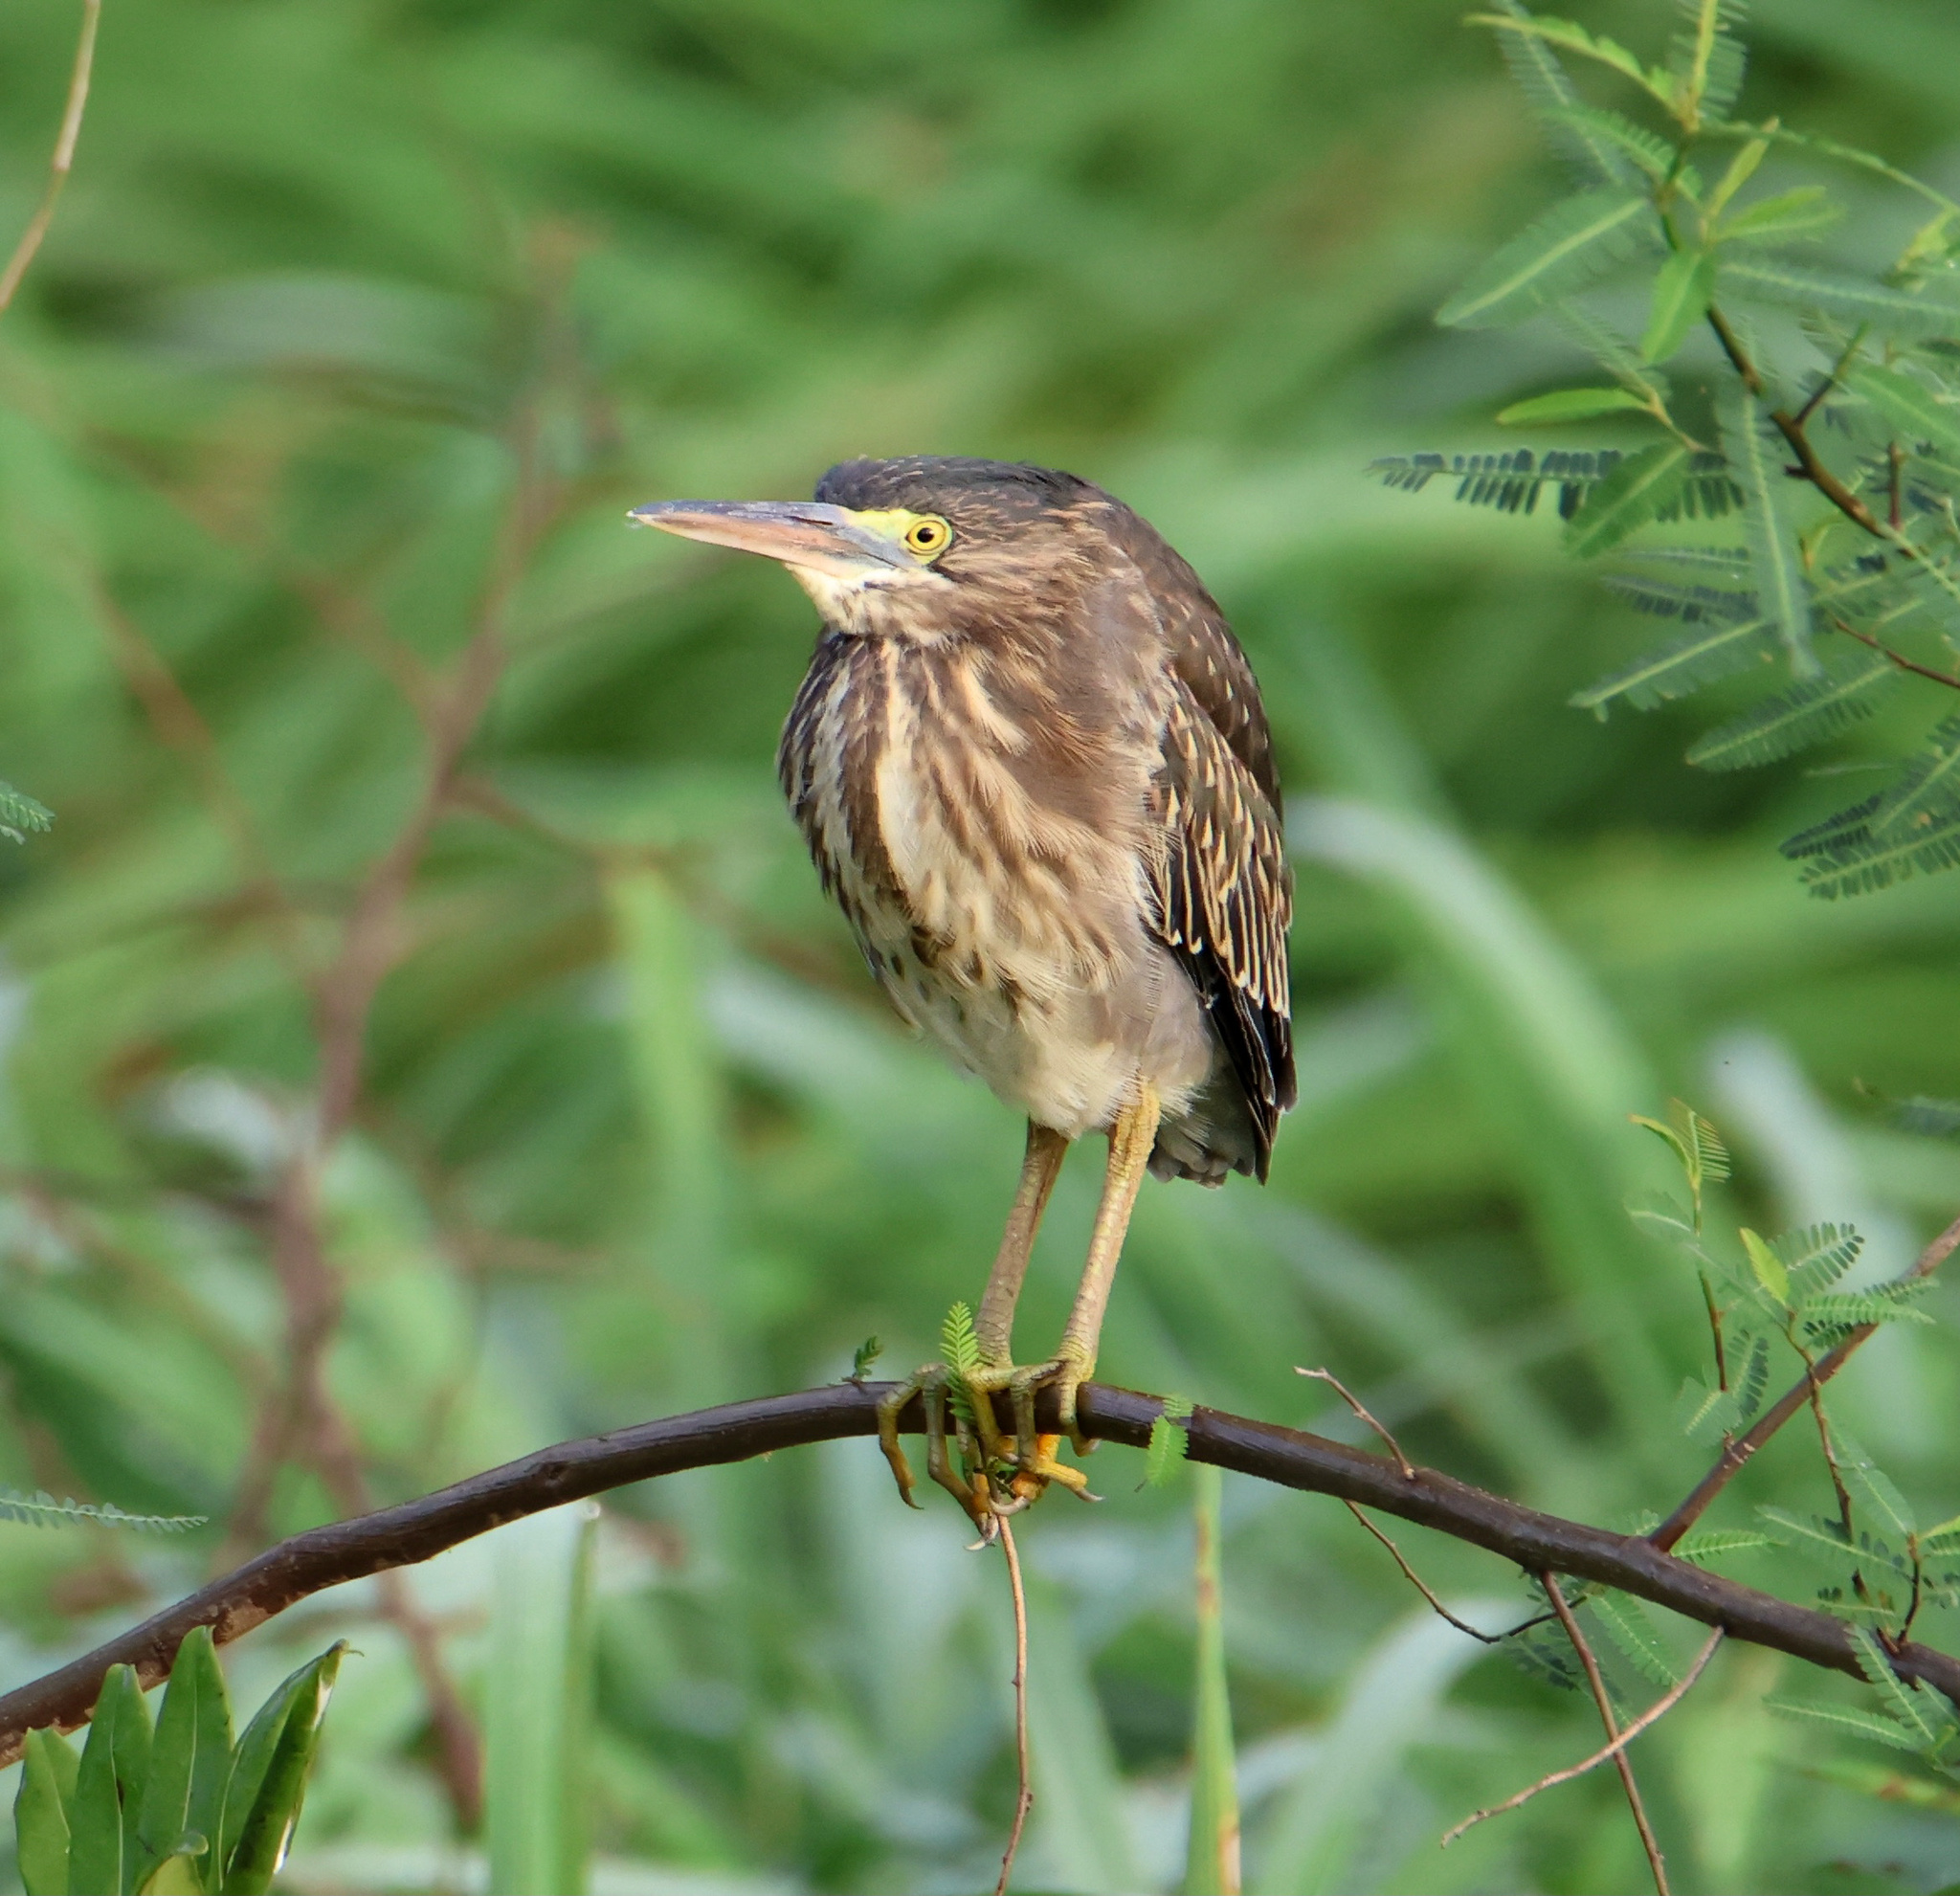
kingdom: Animalia
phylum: Chordata
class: Aves
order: Pelecaniformes
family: Ardeidae
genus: Butorides
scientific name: Butorides virescens
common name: Green heron
